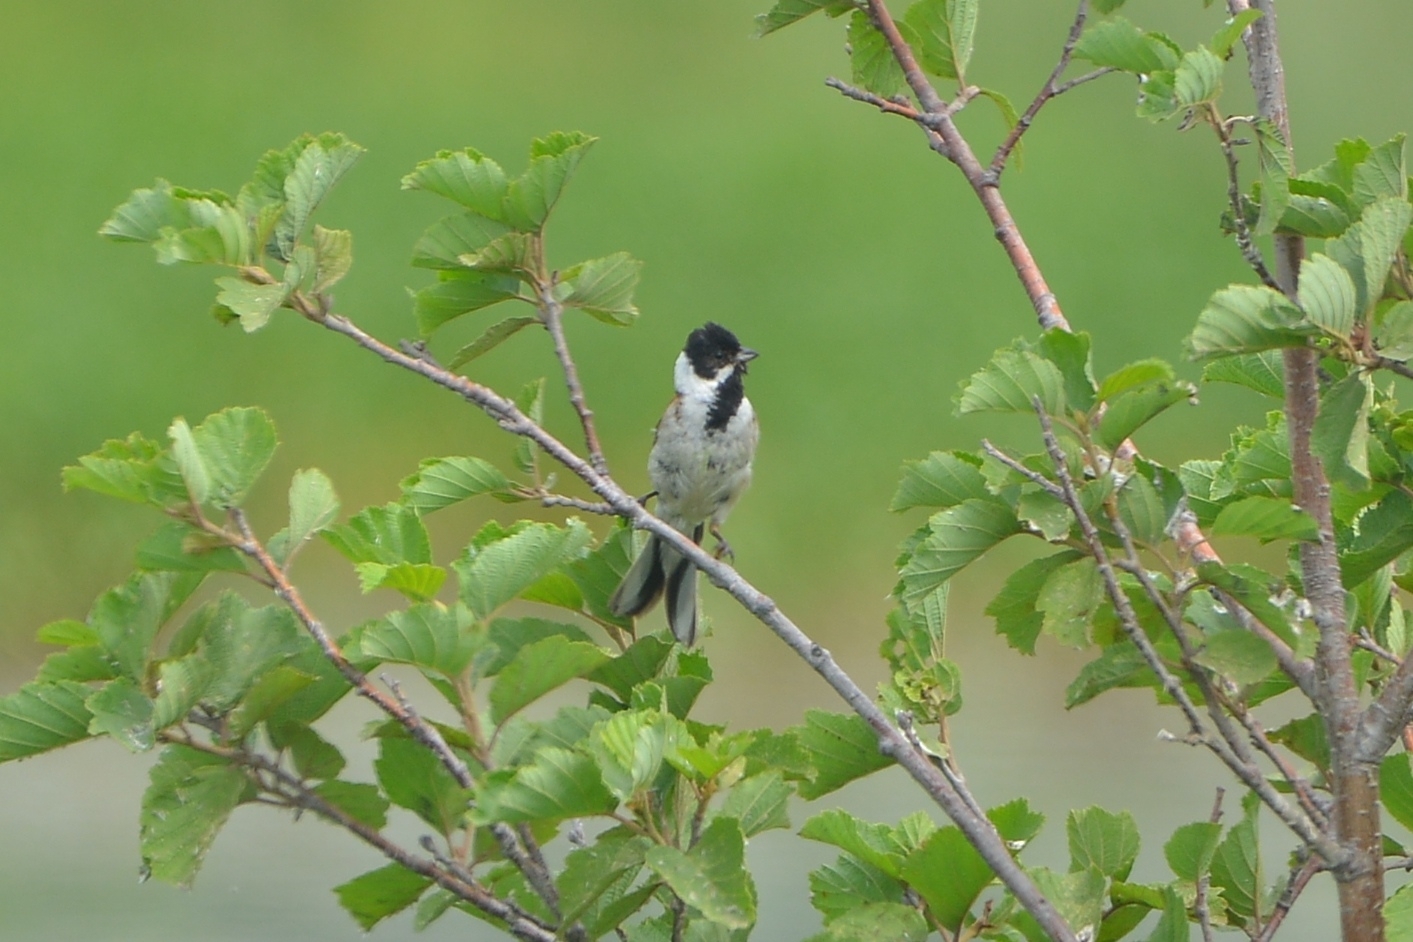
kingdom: Animalia
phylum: Chordata
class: Aves
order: Passeriformes
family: Emberizidae
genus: Emberiza
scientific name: Emberiza schoeniclus
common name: Reed bunting
